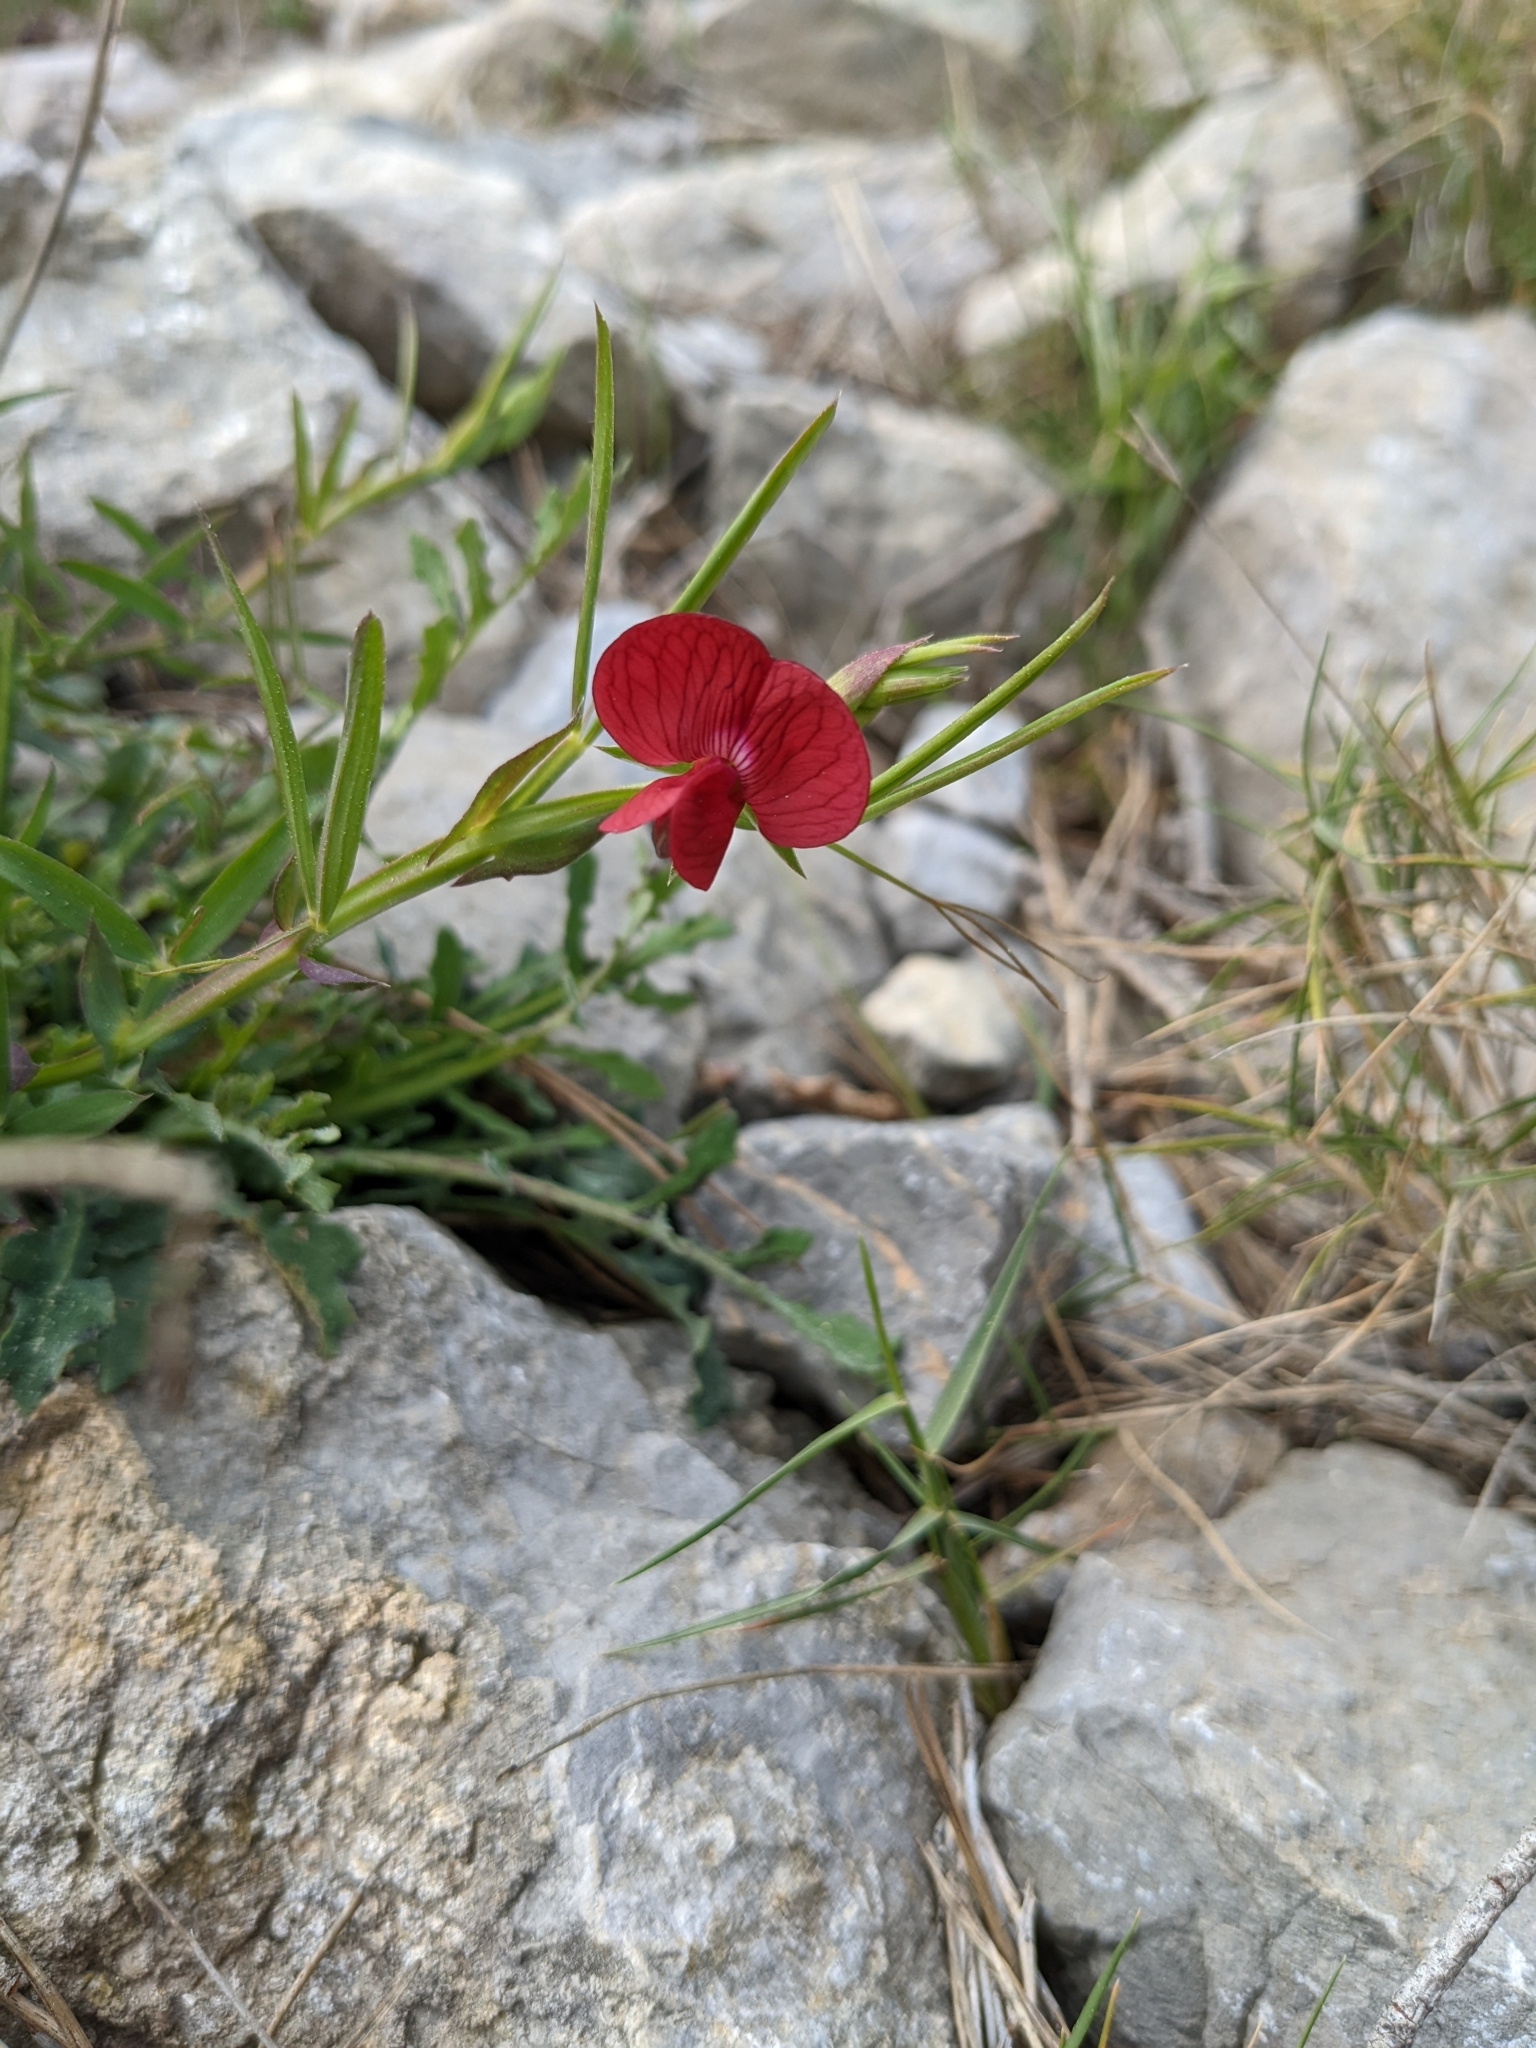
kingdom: Plantae
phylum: Tracheophyta
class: Magnoliopsida
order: Fabales
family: Fabaceae
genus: Lathyrus
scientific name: Lathyrus cicera
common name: Red vetchling
